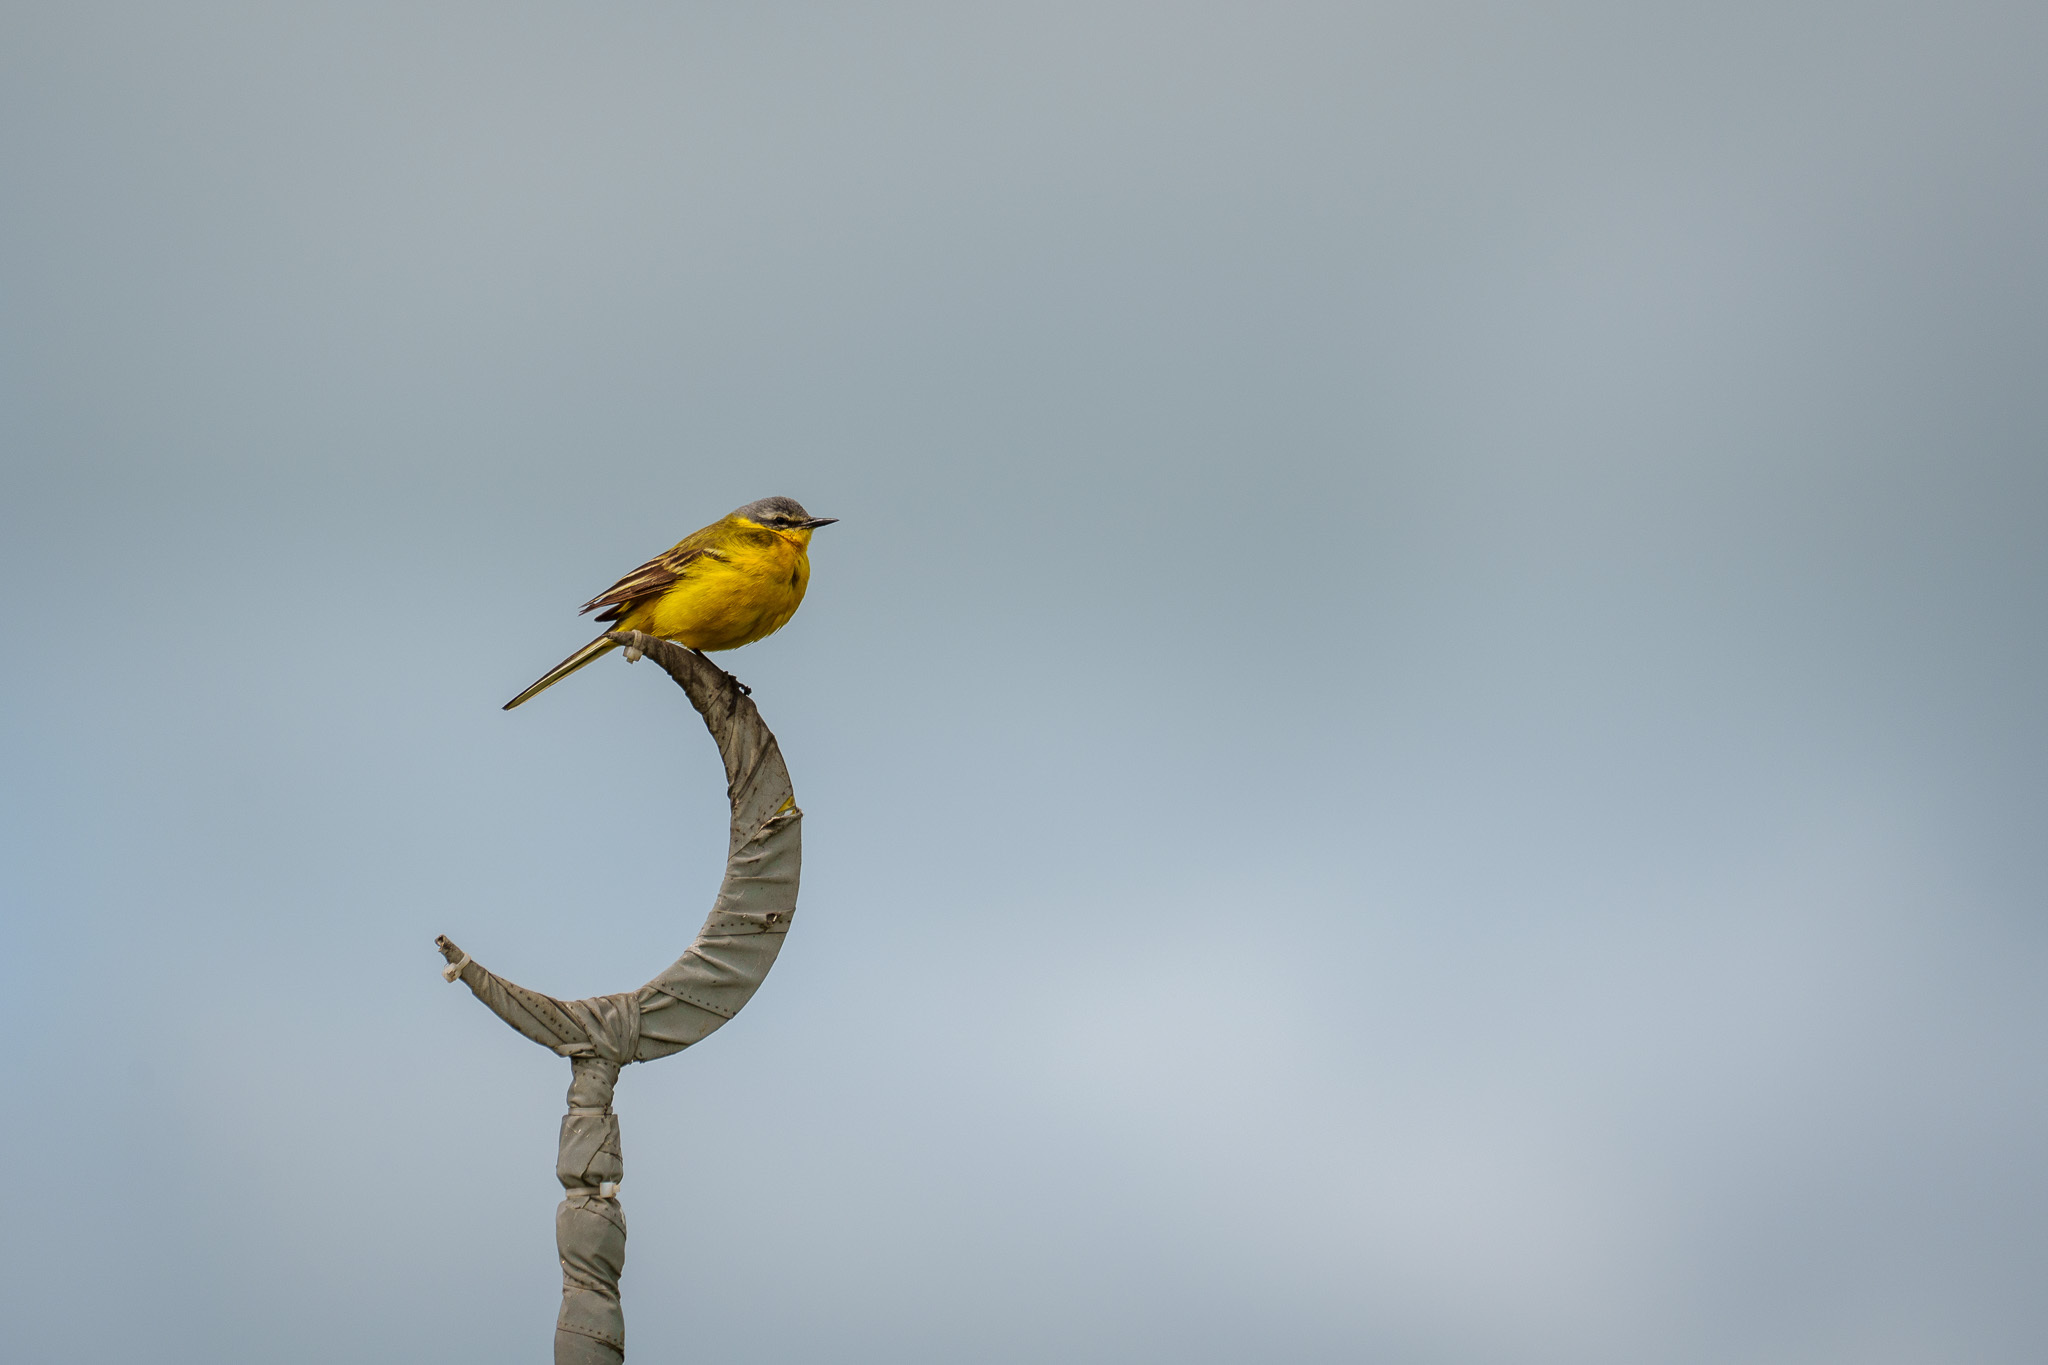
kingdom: Animalia
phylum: Chordata
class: Aves
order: Passeriformes
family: Motacillidae
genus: Motacilla
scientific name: Motacilla flava
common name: Western yellow wagtail
